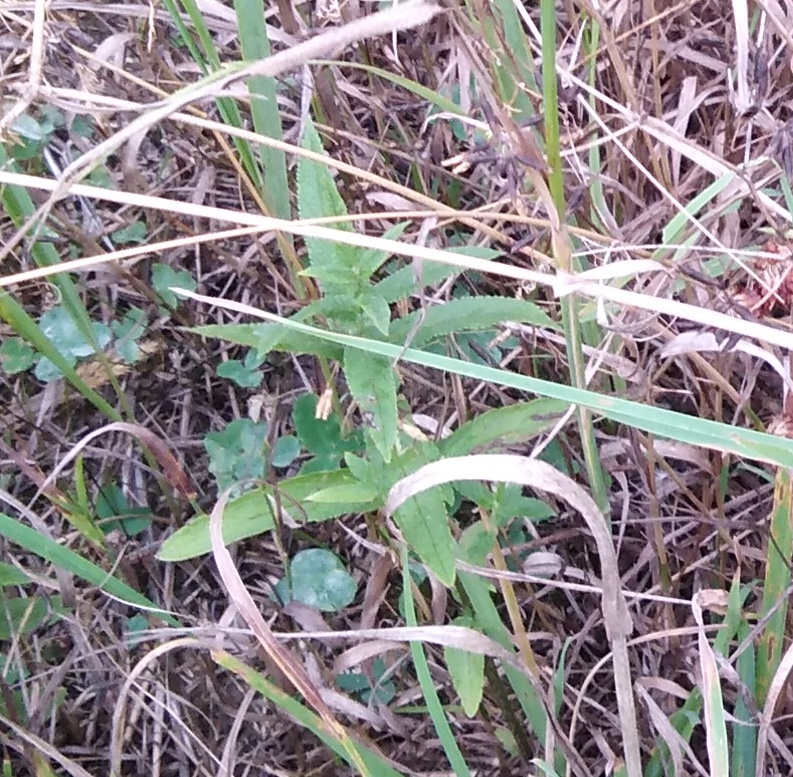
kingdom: Plantae
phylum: Tracheophyta
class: Magnoliopsida
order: Lamiales
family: Lamiaceae
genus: Stachys
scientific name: Stachys palustris
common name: Marsh woundwort
